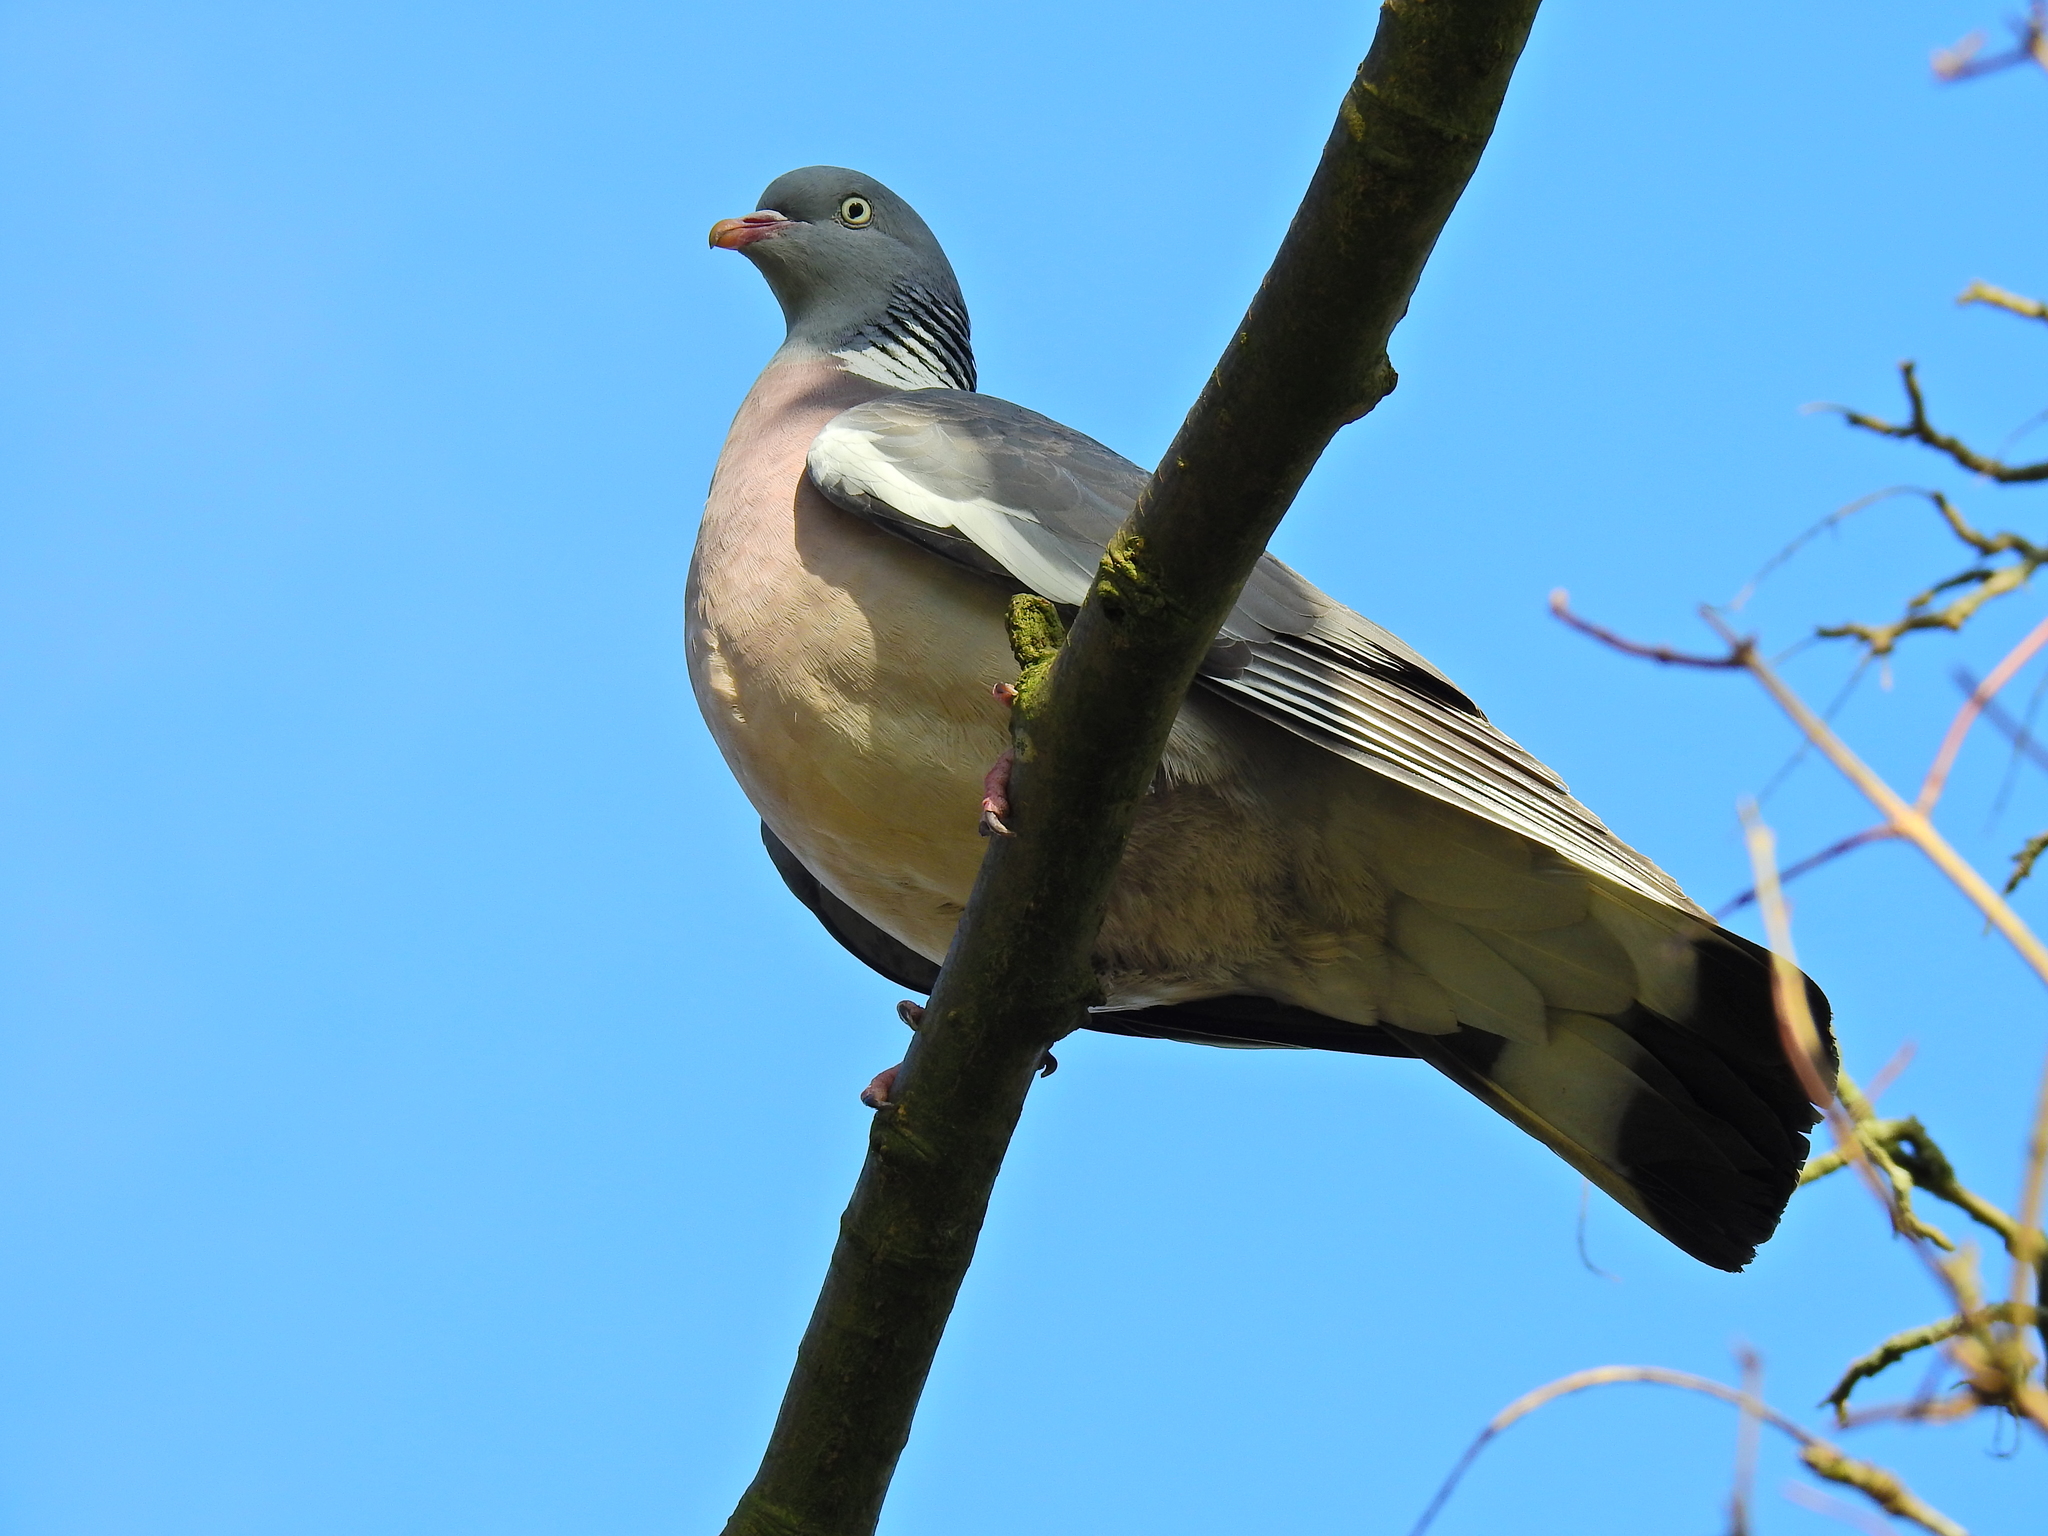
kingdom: Animalia
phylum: Chordata
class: Aves
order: Columbiformes
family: Columbidae
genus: Columba
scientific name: Columba palumbus
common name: Common wood pigeon
